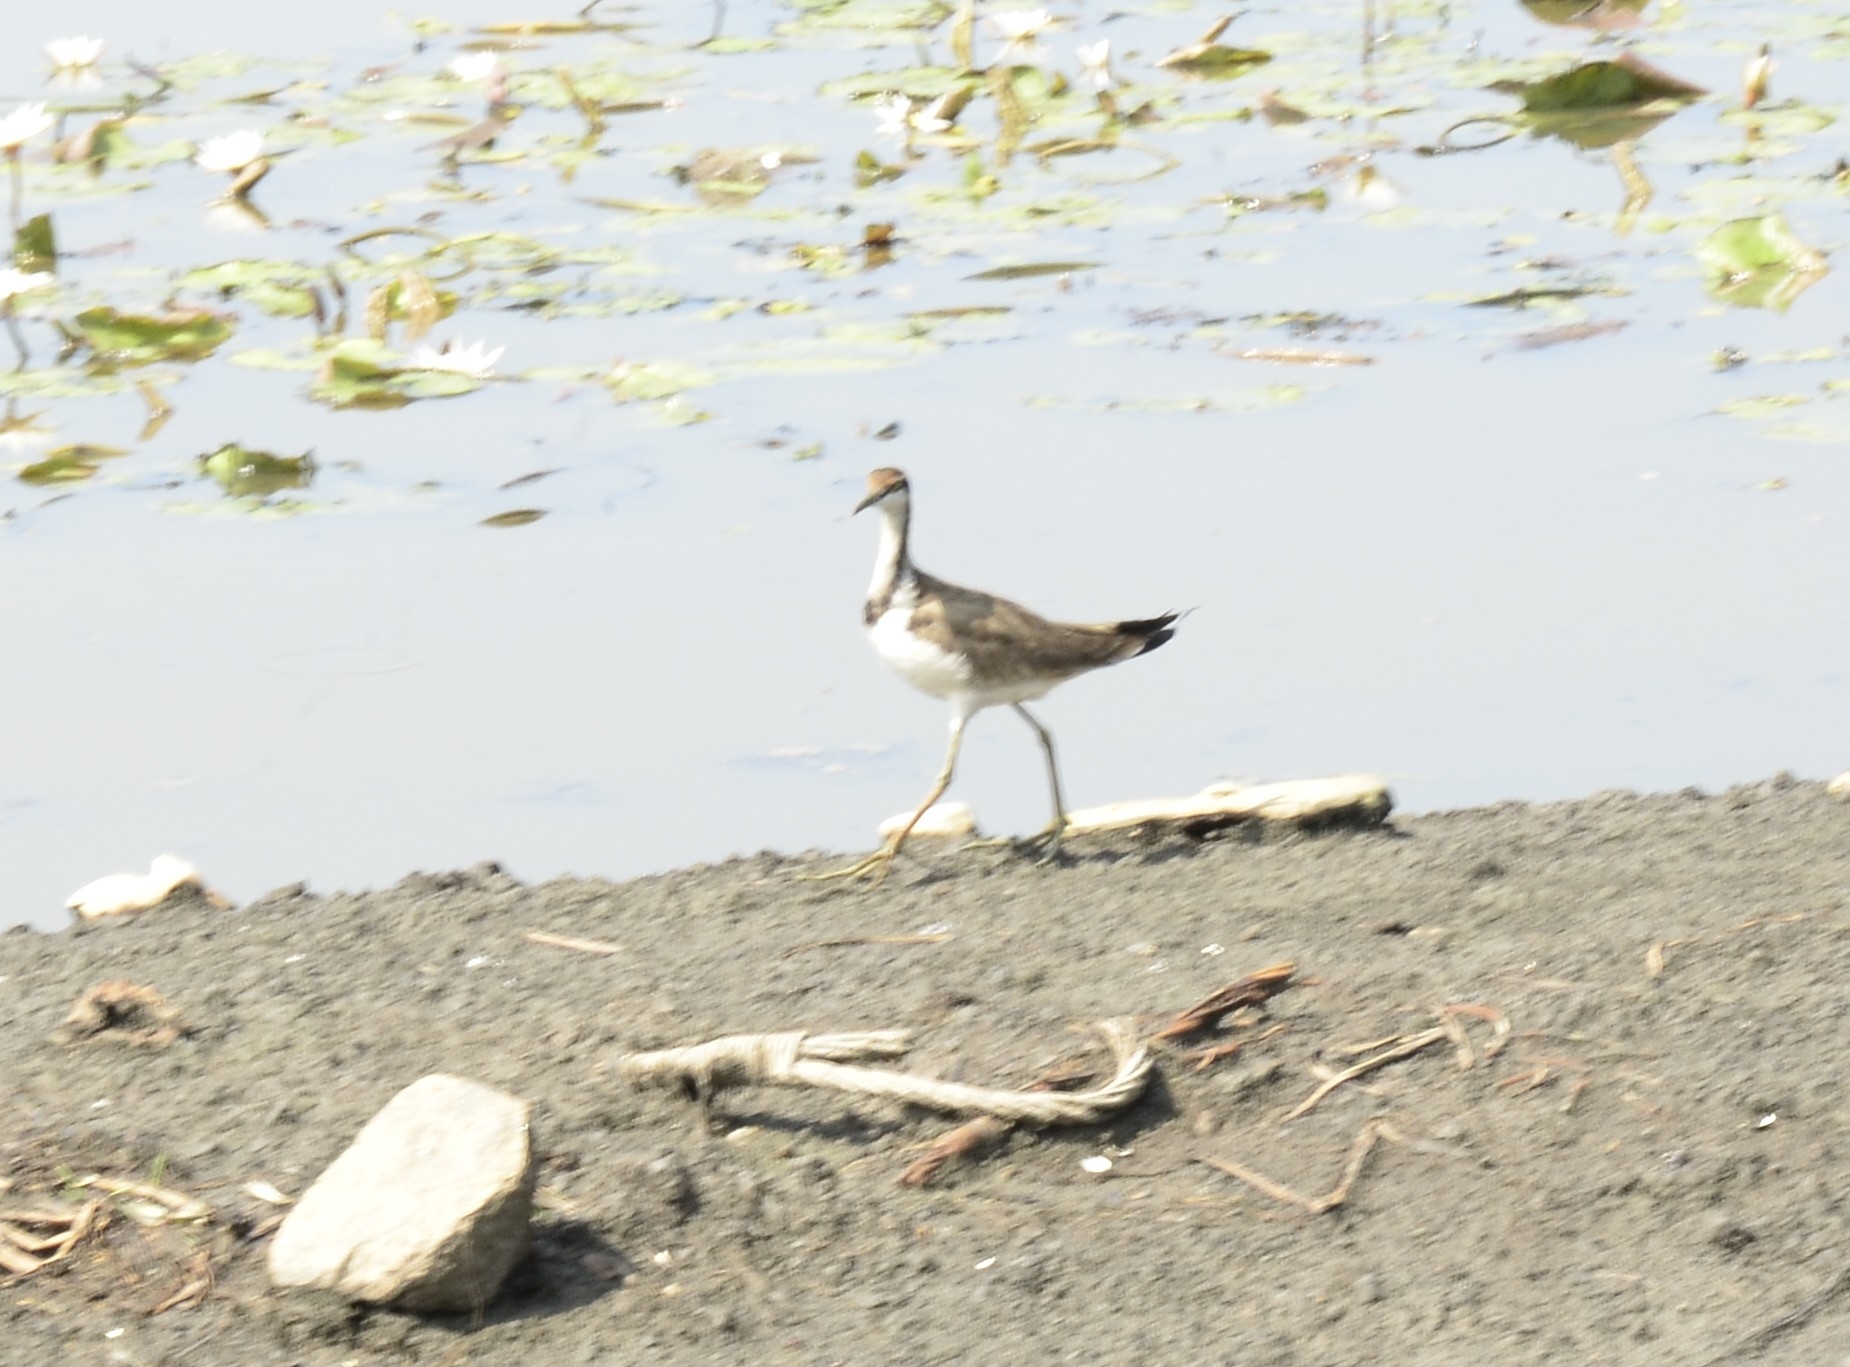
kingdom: Animalia
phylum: Chordata
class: Aves
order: Charadriiformes
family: Jacanidae
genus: Hydrophasianus
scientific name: Hydrophasianus chirurgus
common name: Pheasant-tailed jacana
